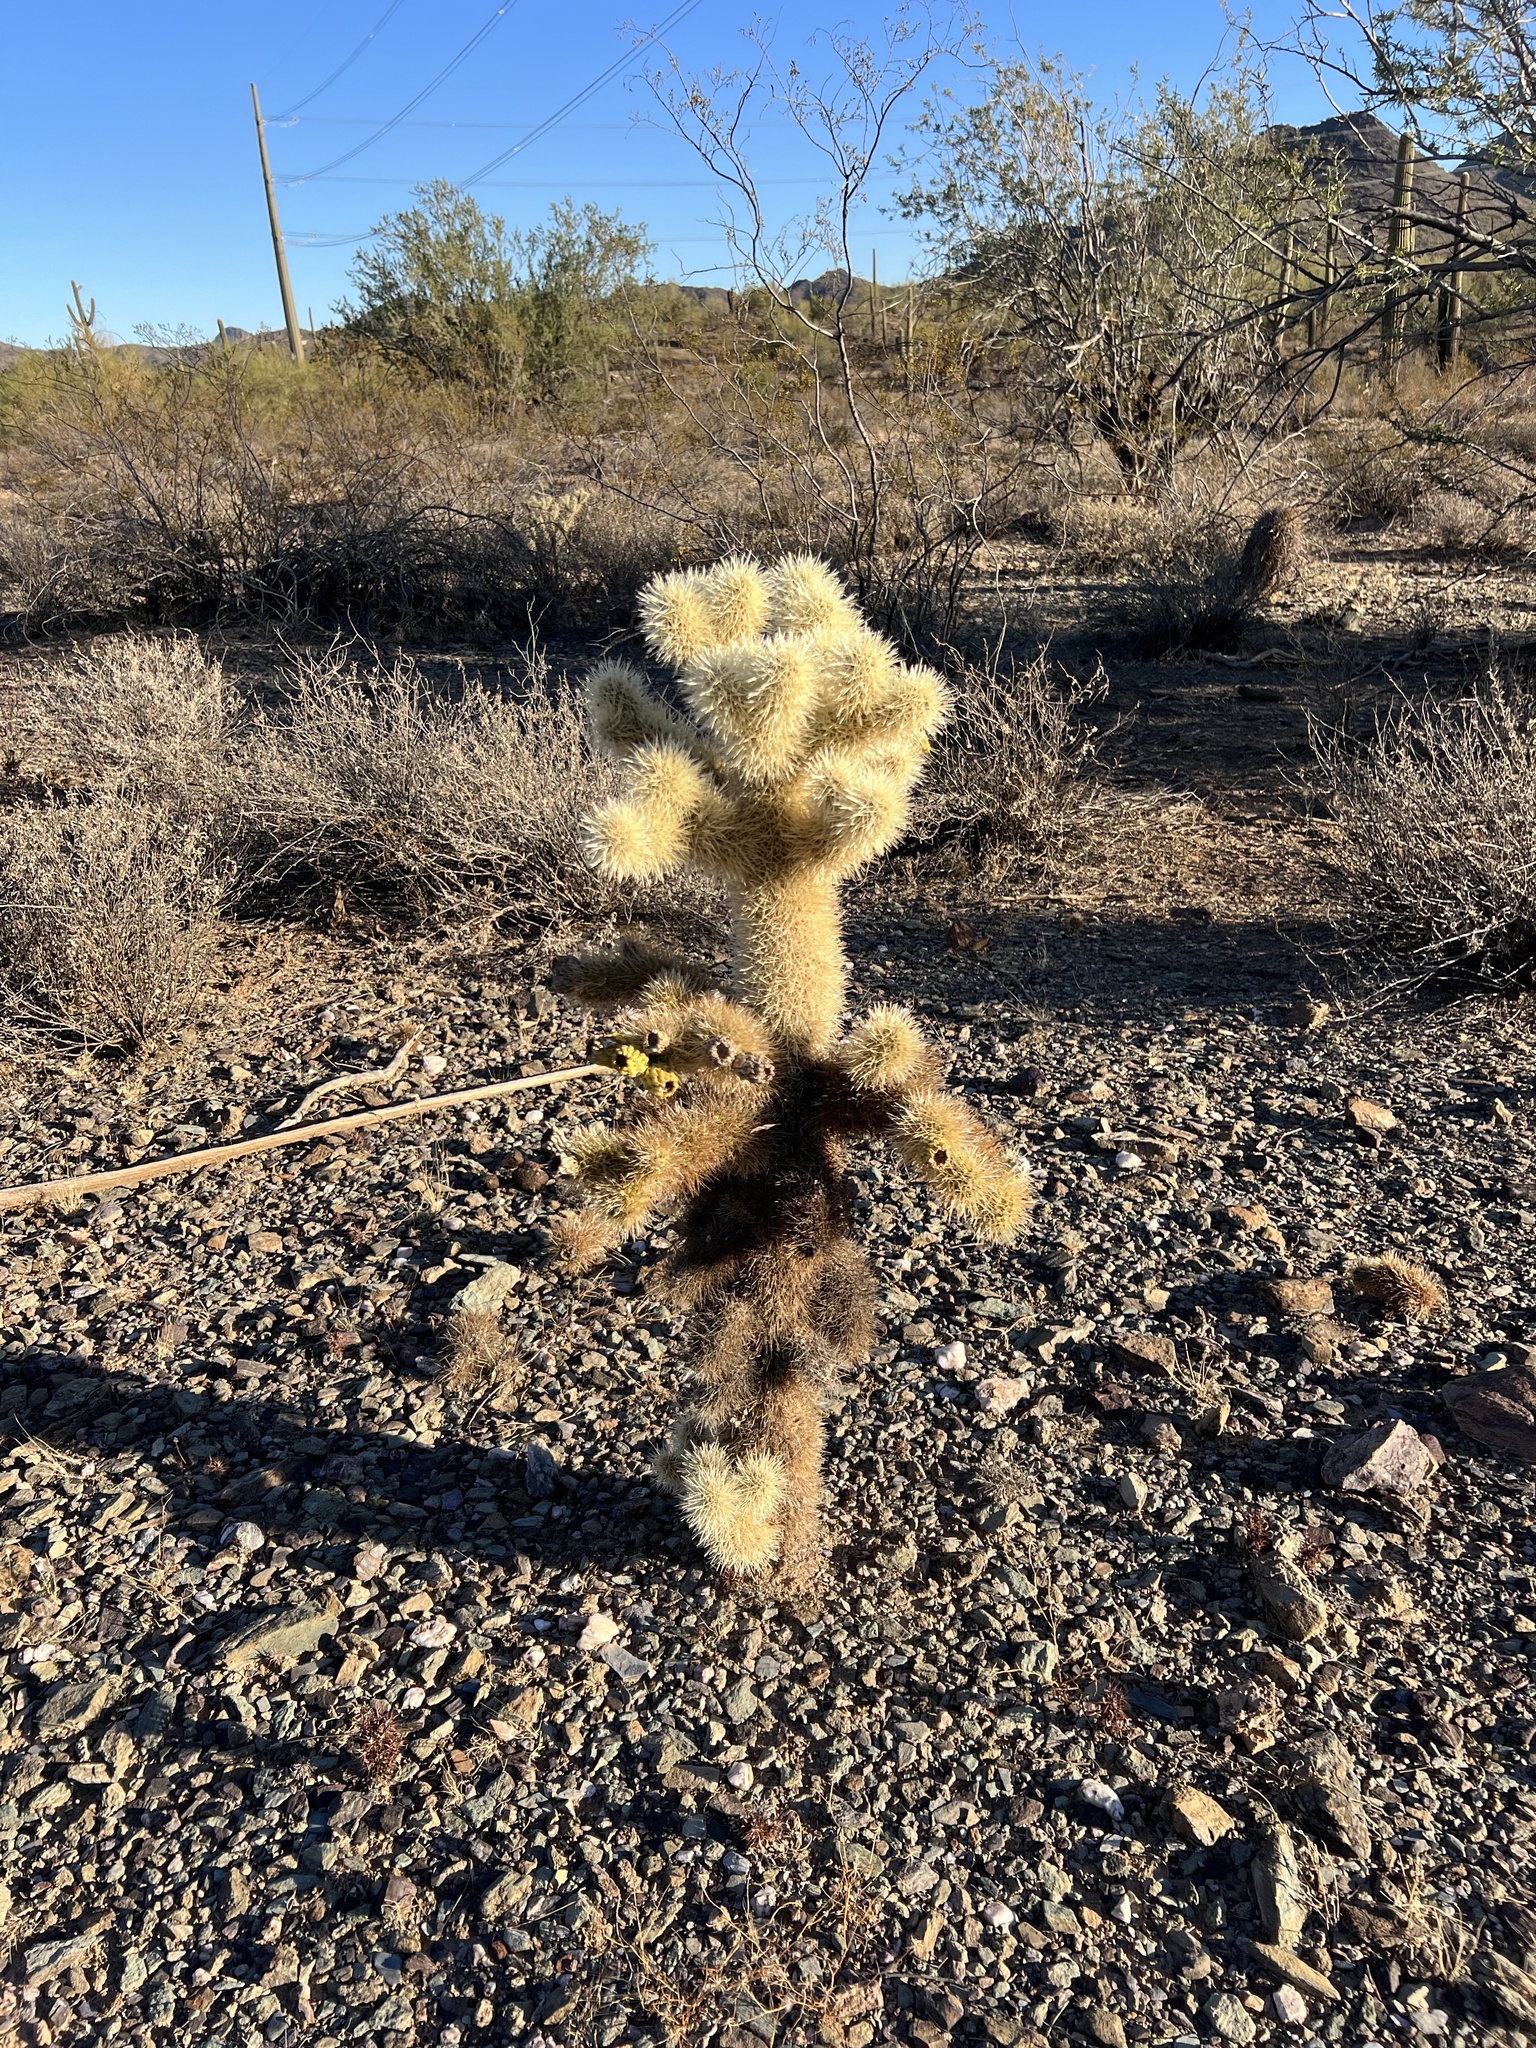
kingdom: Plantae
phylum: Tracheophyta
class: Magnoliopsida
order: Caryophyllales
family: Cactaceae
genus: Cylindropuntia
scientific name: Cylindropuntia fosbergii
